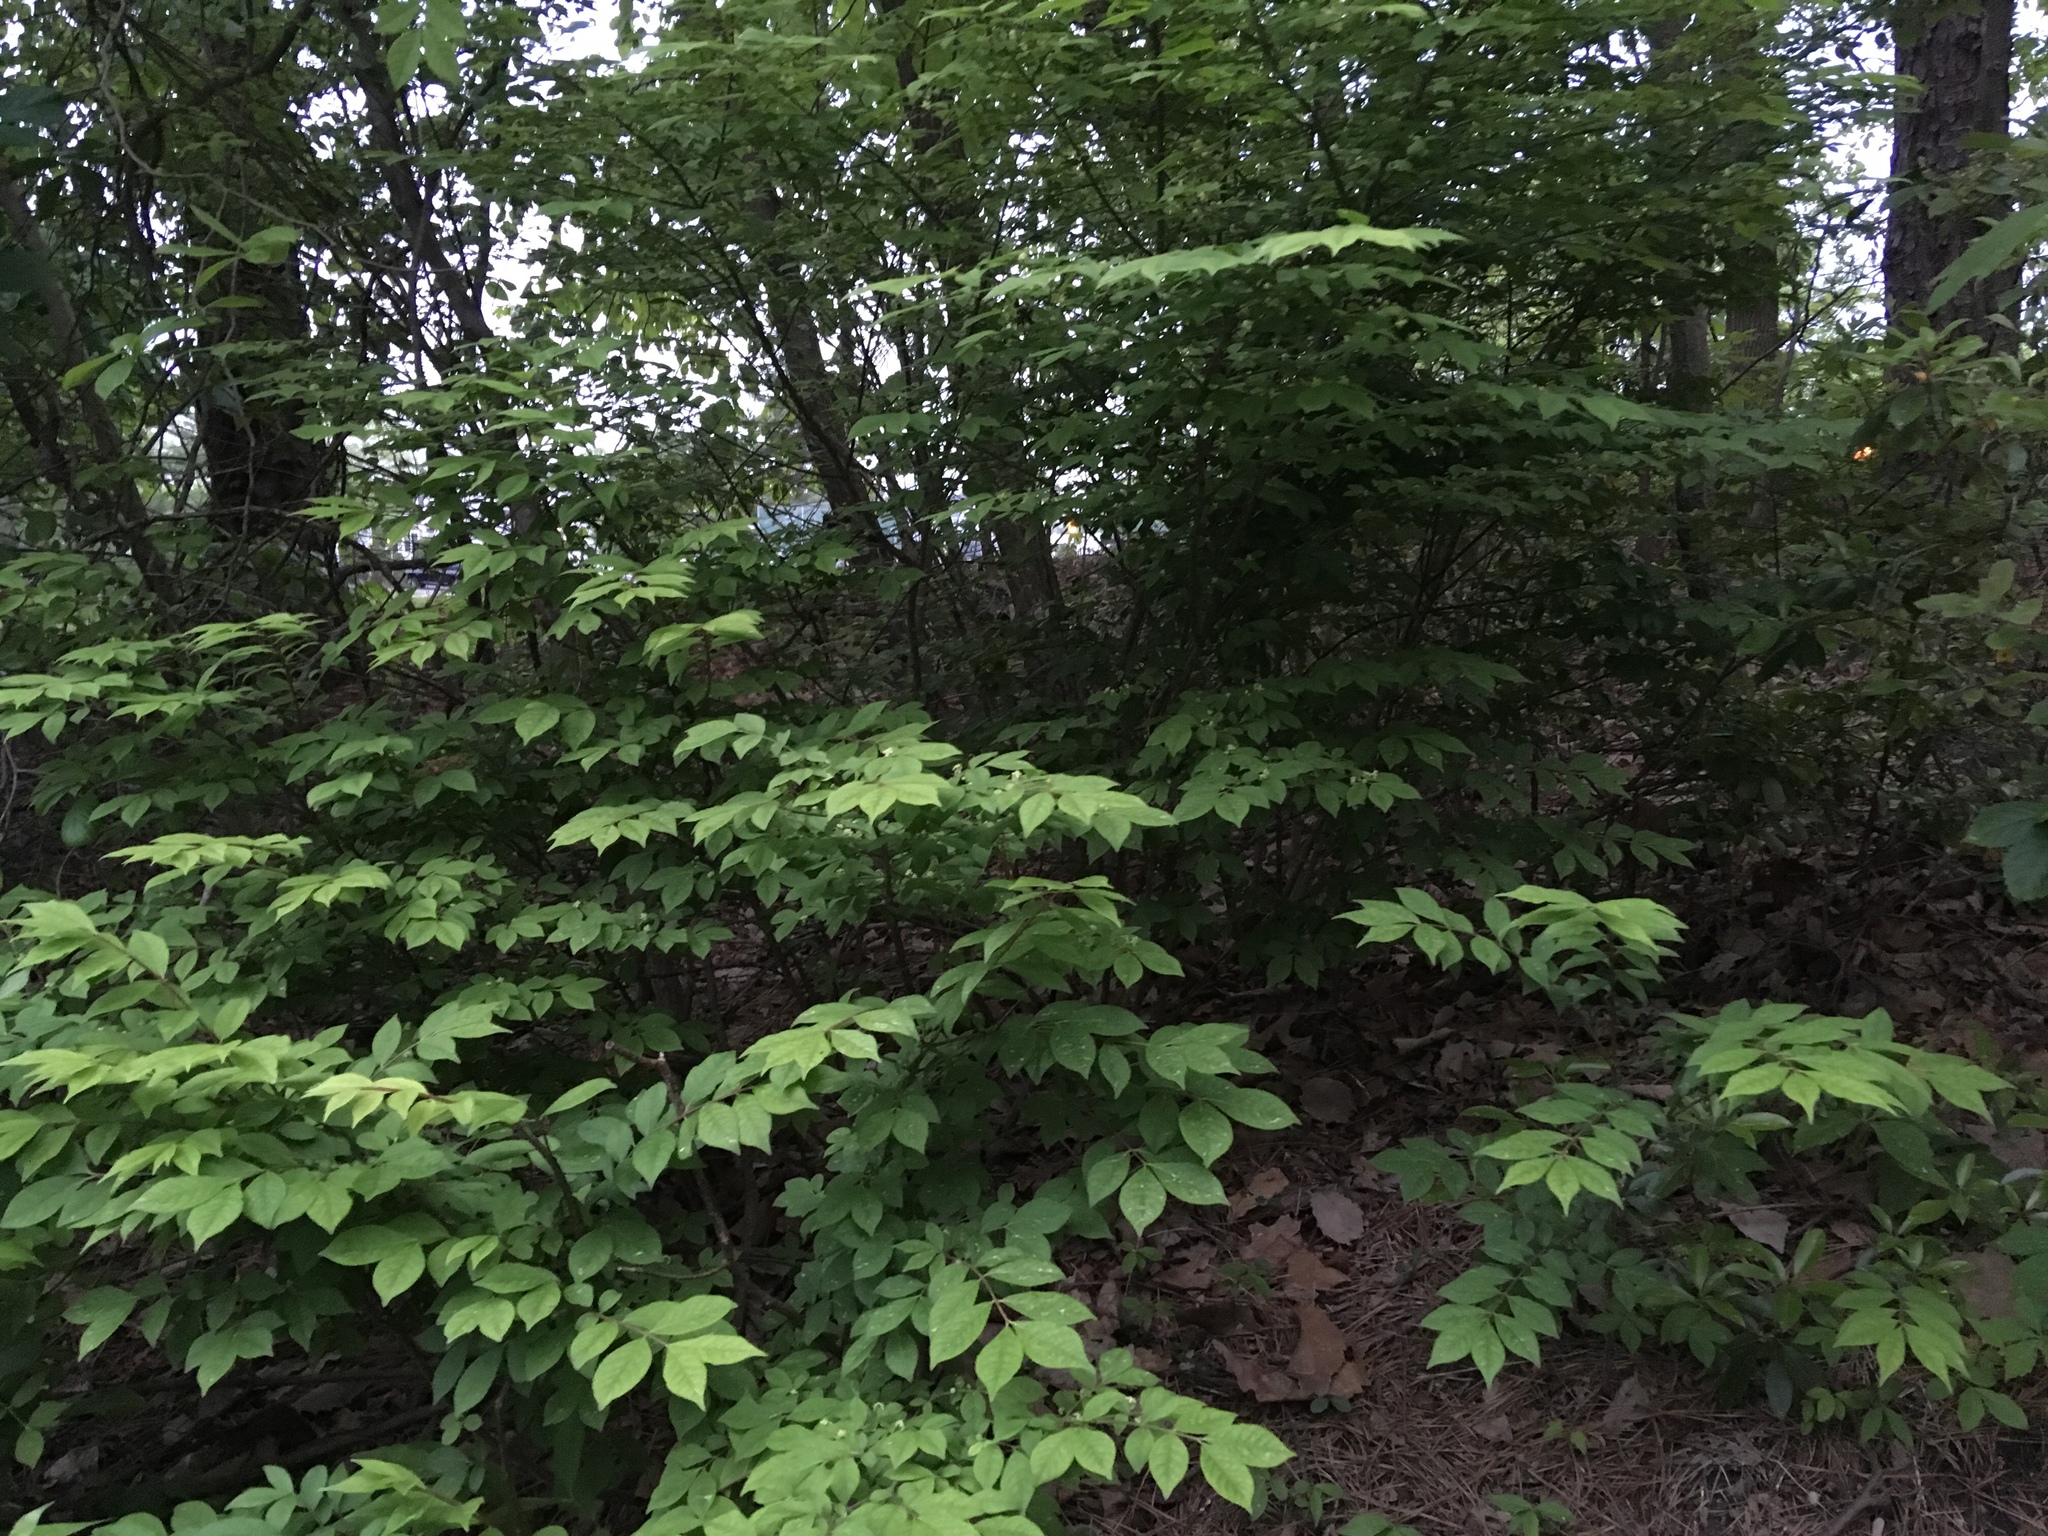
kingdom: Plantae
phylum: Tracheophyta
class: Magnoliopsida
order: Celastrales
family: Celastraceae
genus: Euonymus
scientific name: Euonymus alatus
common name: Winged euonymus
